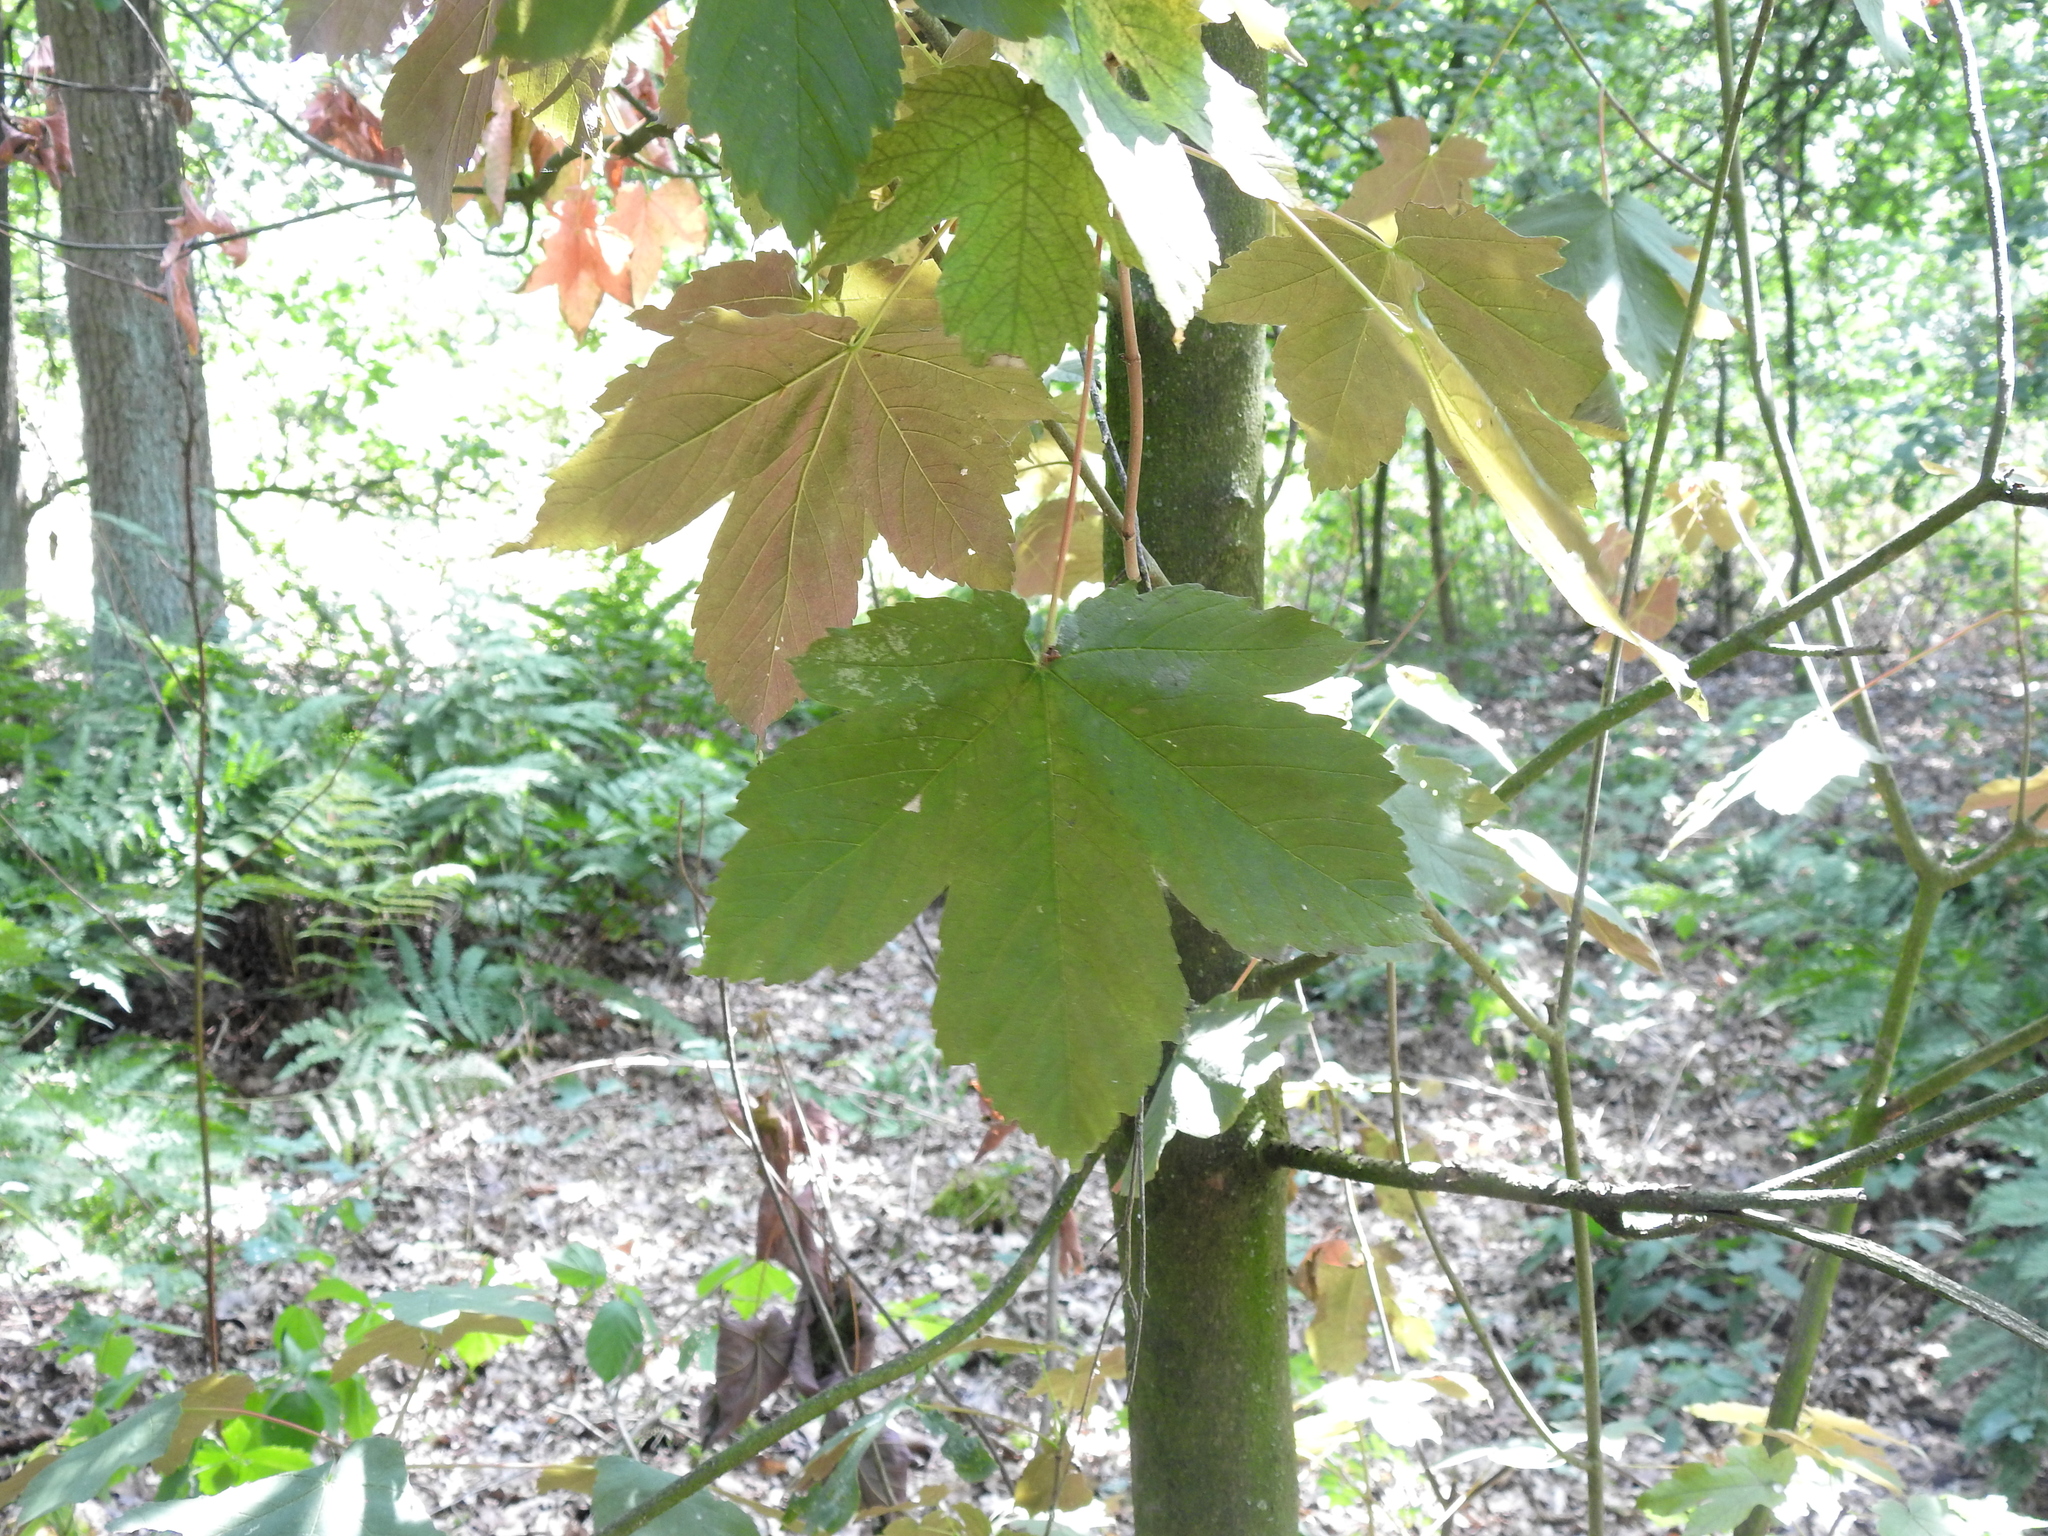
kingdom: Plantae
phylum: Tracheophyta
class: Magnoliopsida
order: Sapindales
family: Sapindaceae
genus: Acer
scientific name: Acer pseudoplatanus
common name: Sycamore
